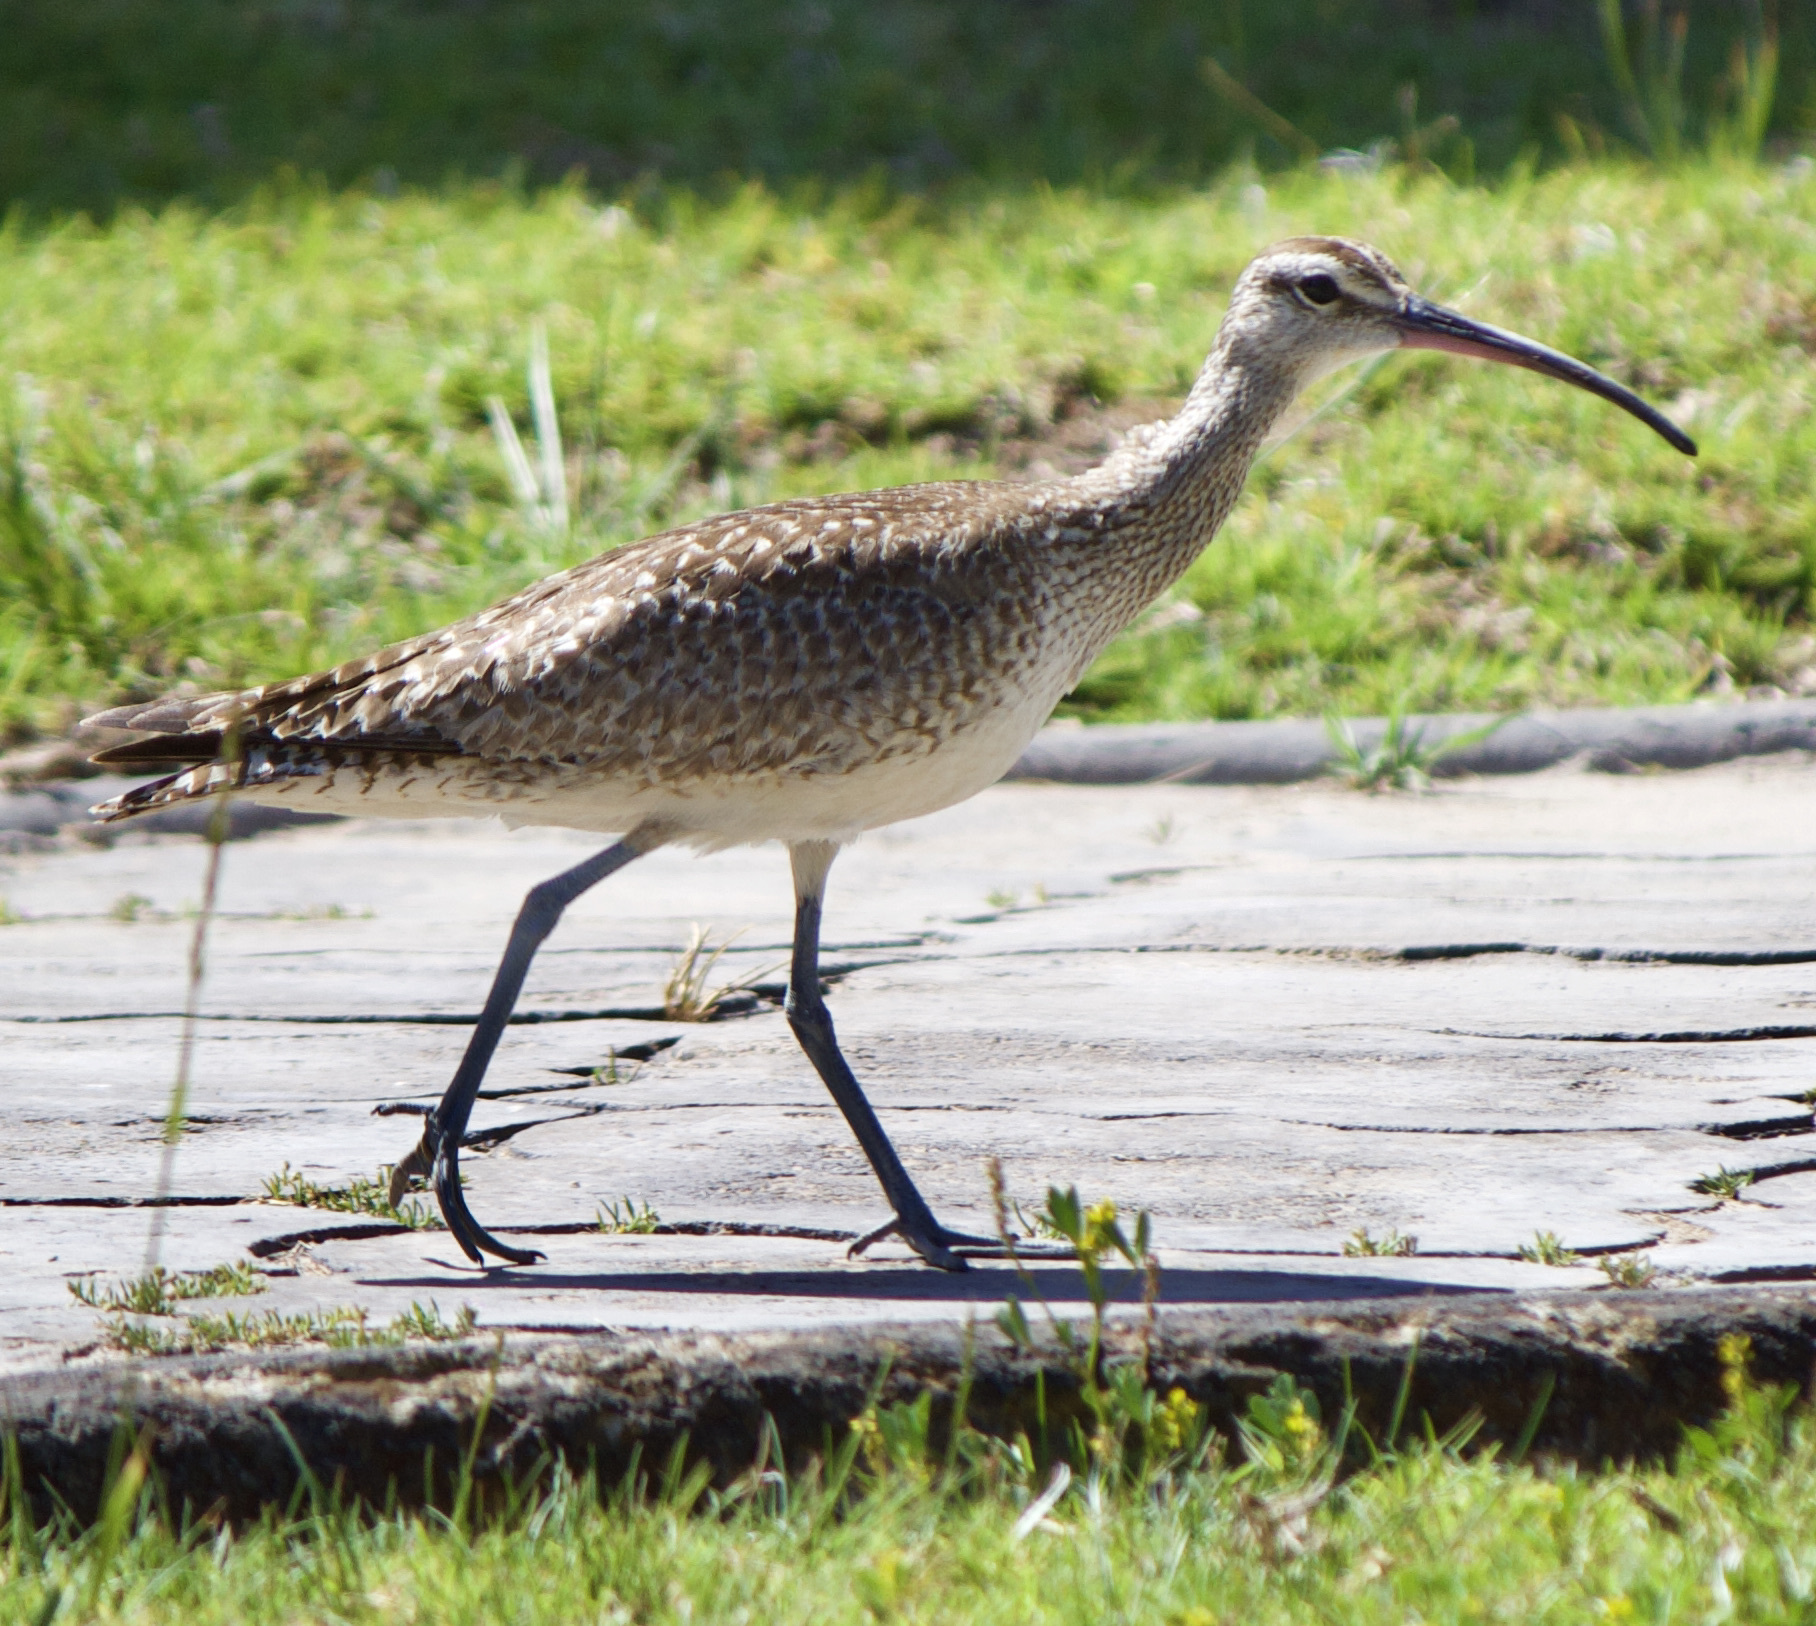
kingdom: Animalia
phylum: Chordata
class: Aves
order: Charadriiformes
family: Scolopacidae
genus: Numenius
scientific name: Numenius phaeopus
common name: Whimbrel
